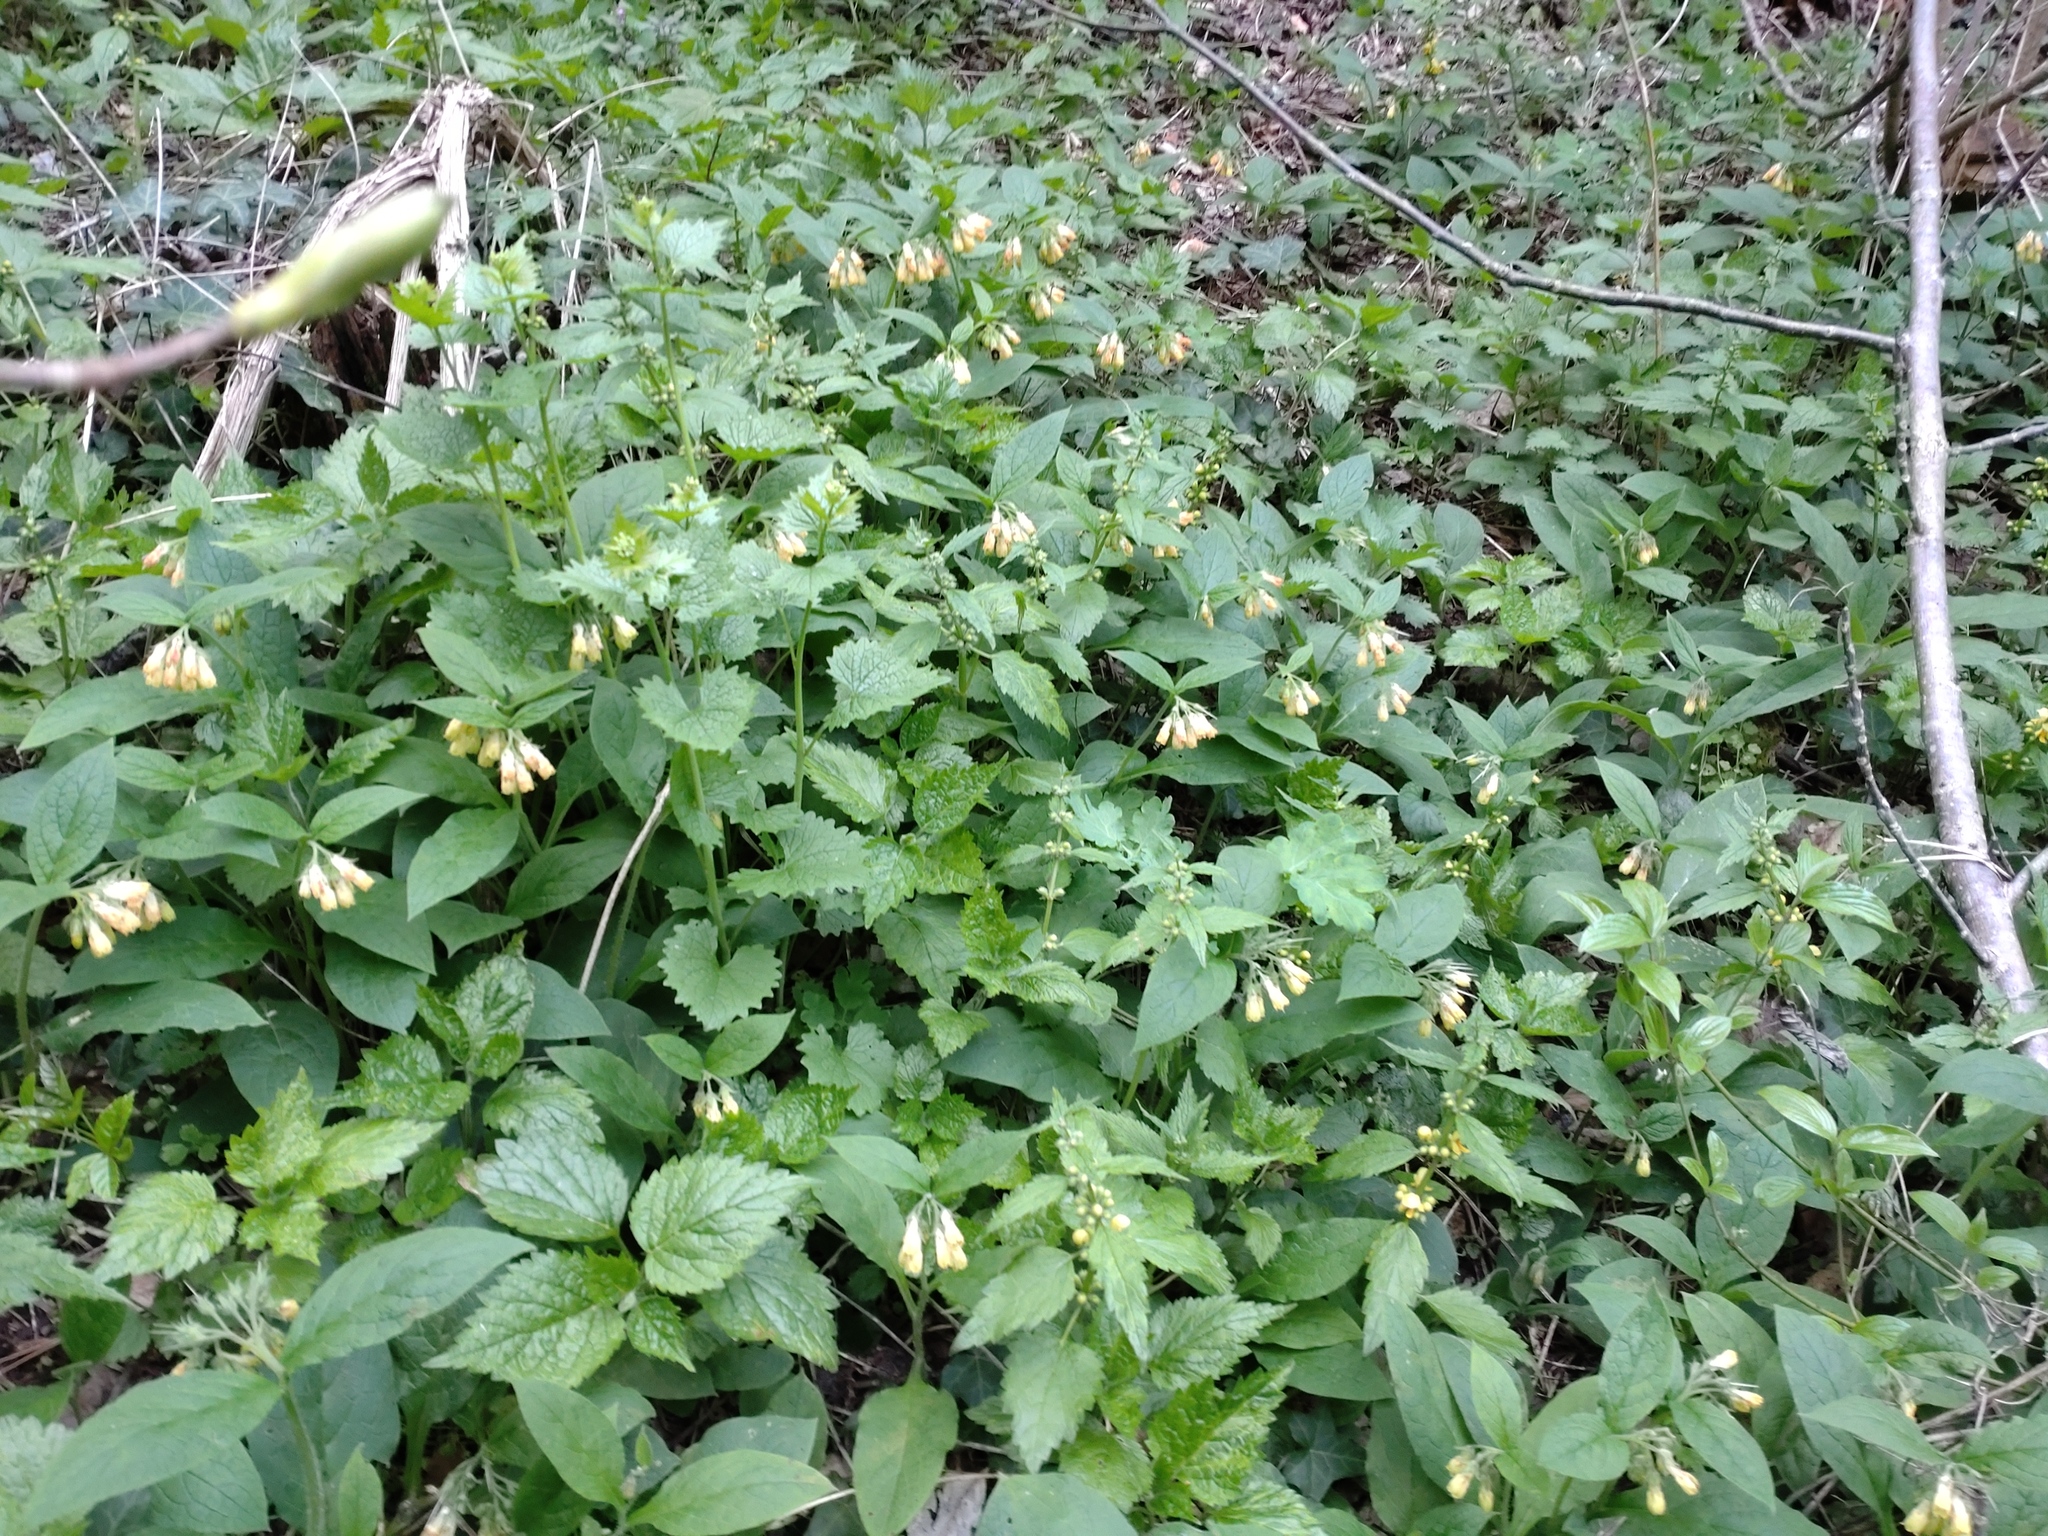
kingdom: Plantae
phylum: Tracheophyta
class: Magnoliopsida
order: Boraginales
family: Boraginaceae
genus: Symphytum
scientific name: Symphytum tuberosum
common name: Tuberous comfrey
